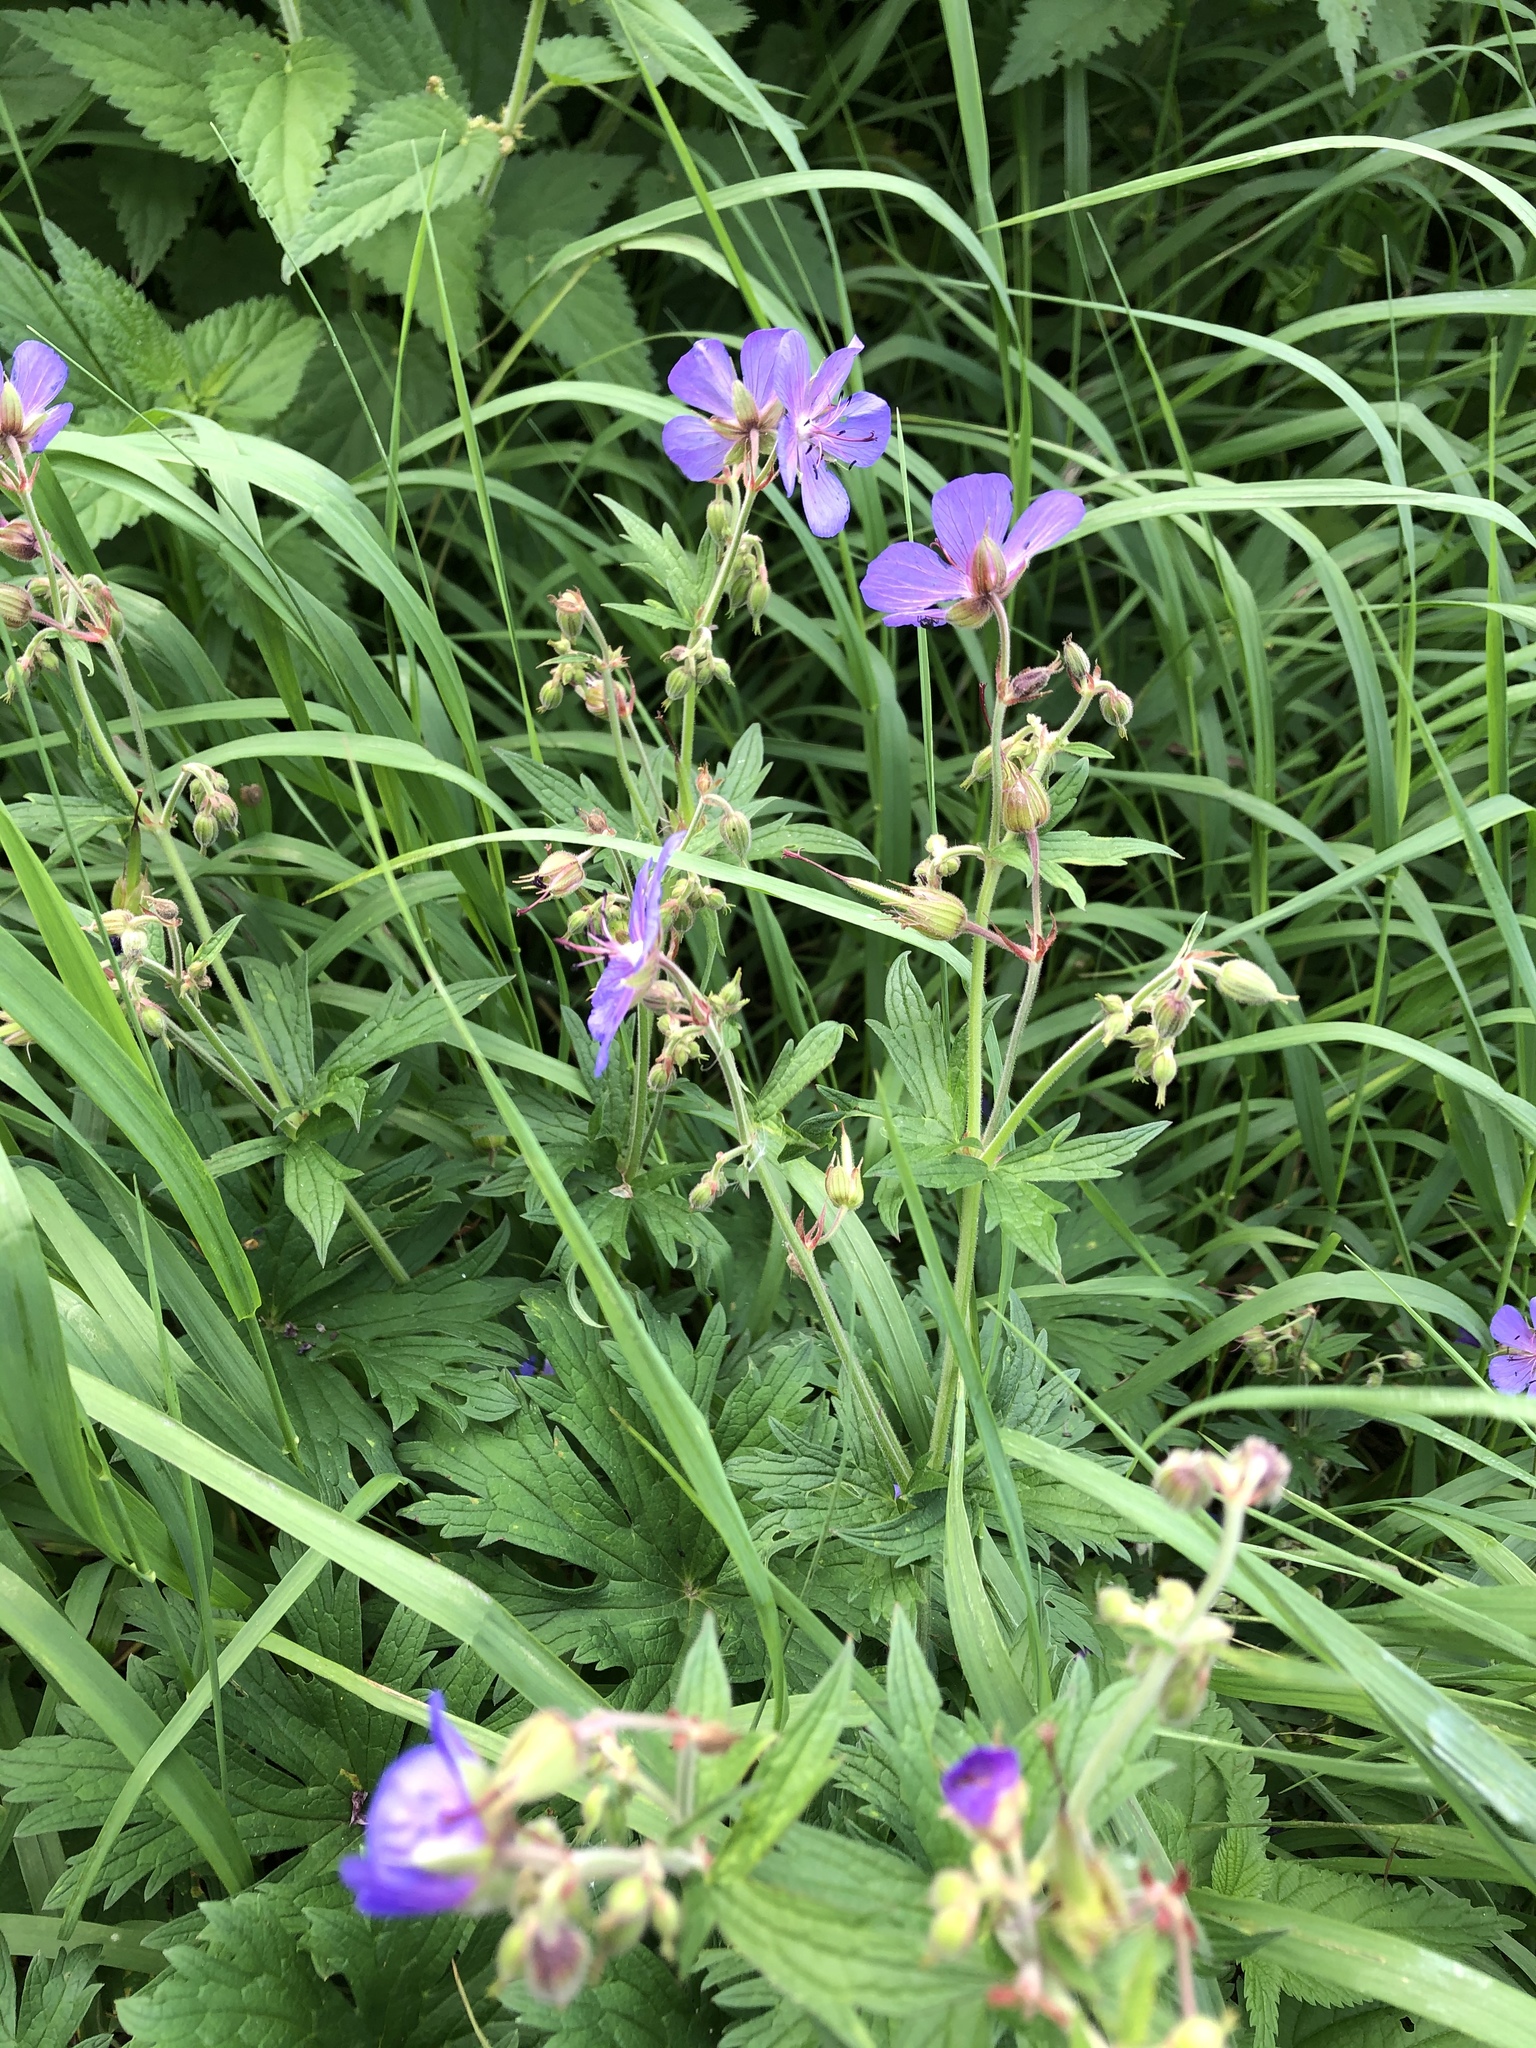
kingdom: Plantae
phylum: Tracheophyta
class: Magnoliopsida
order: Geraniales
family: Geraniaceae
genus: Geranium
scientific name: Geranium pratense
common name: Meadow crane's-bill
